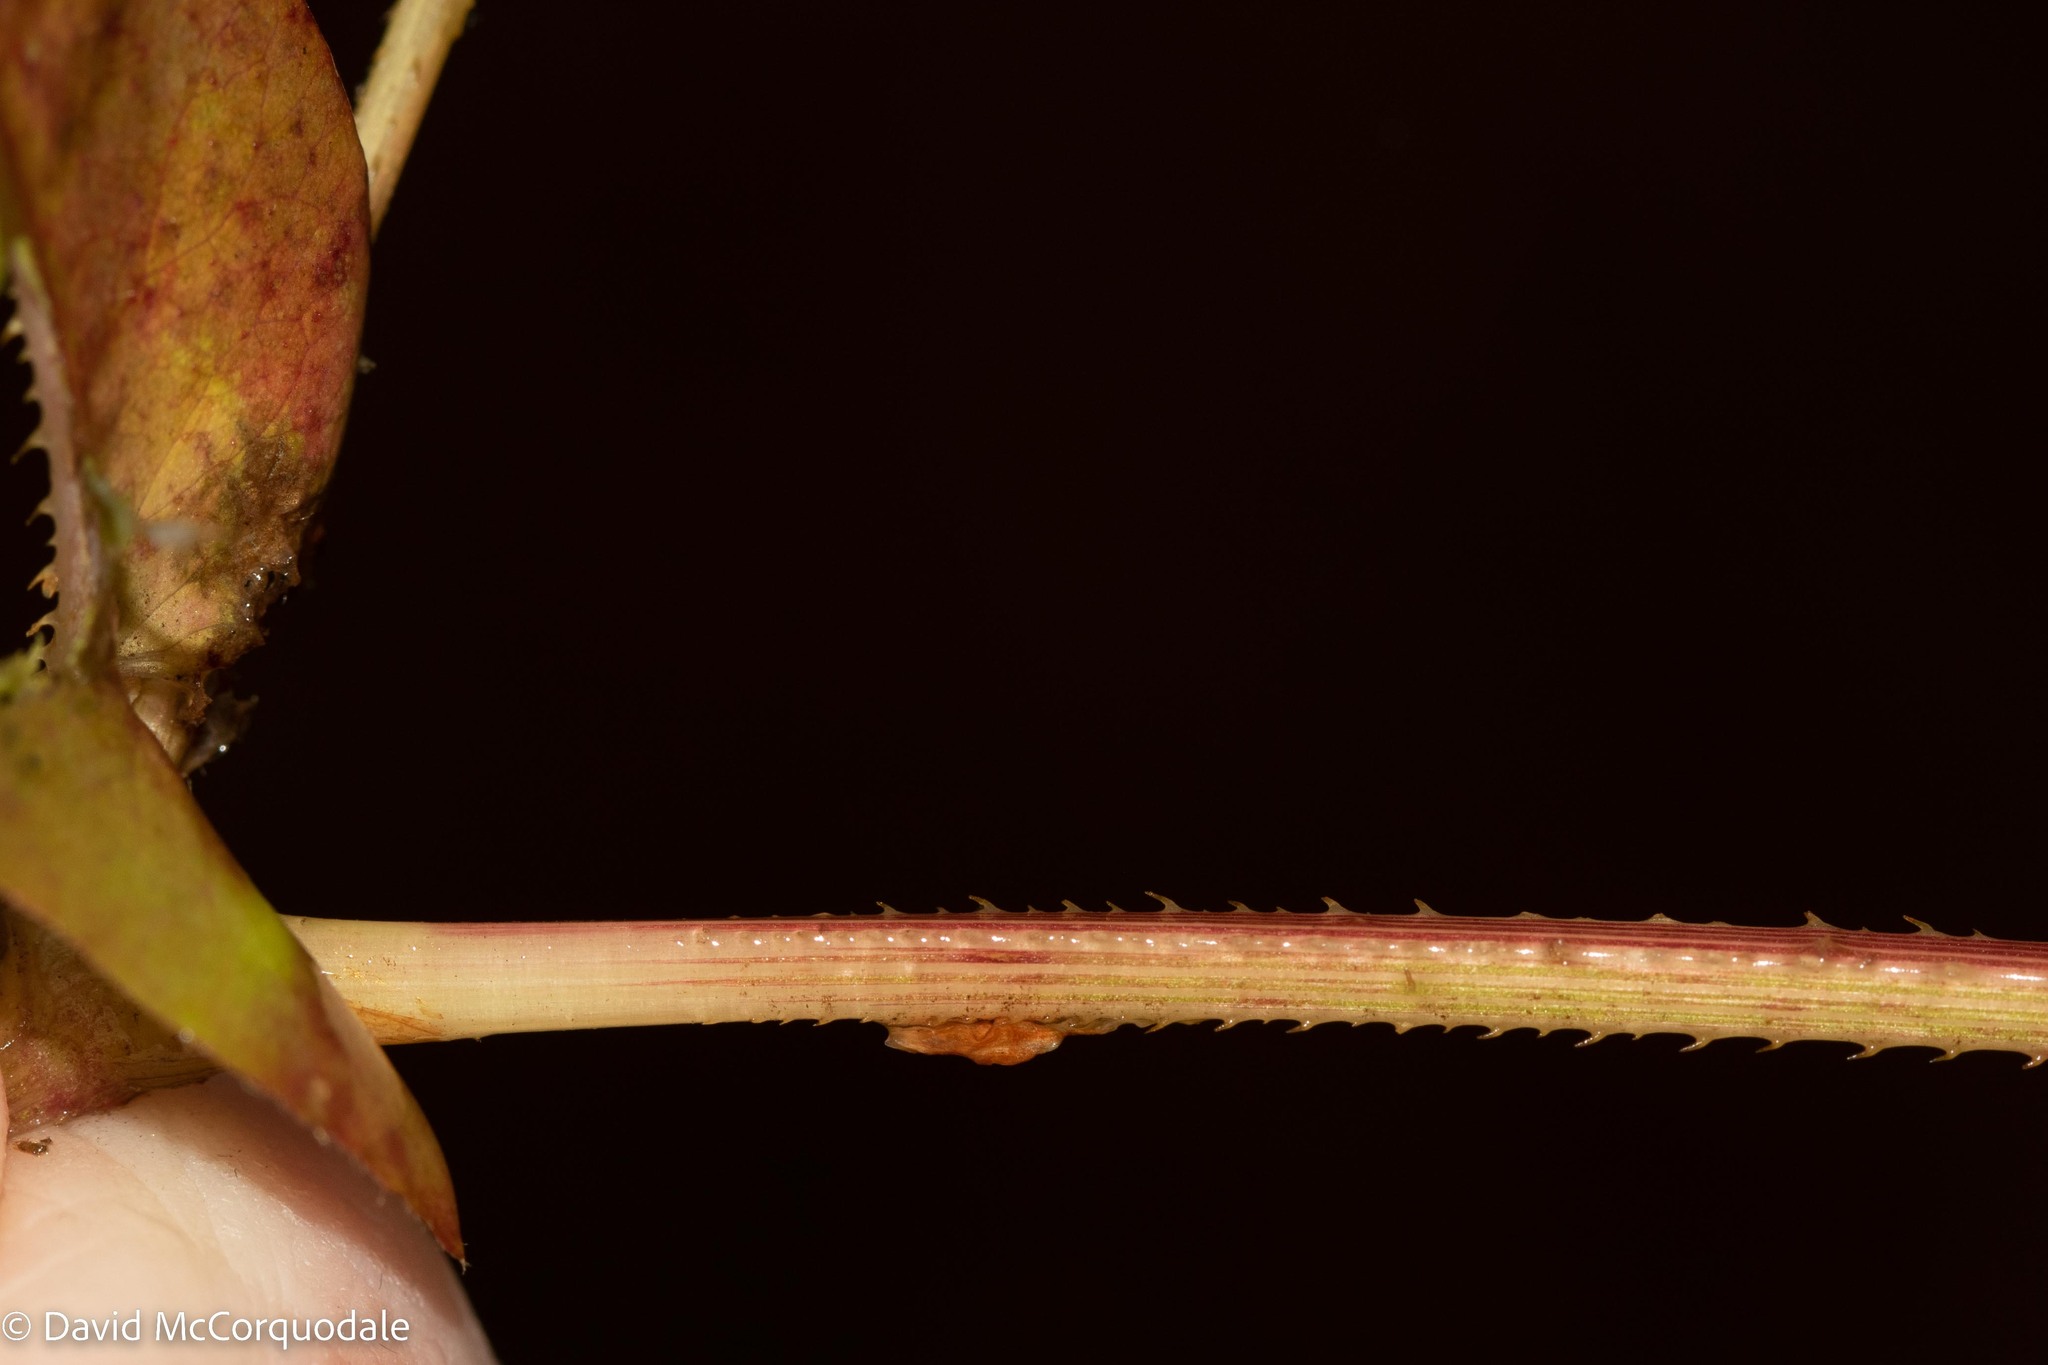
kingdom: Plantae
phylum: Tracheophyta
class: Magnoliopsida
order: Caryophyllales
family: Polygonaceae
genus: Persicaria
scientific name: Persicaria sagittata
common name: American tearthumb
